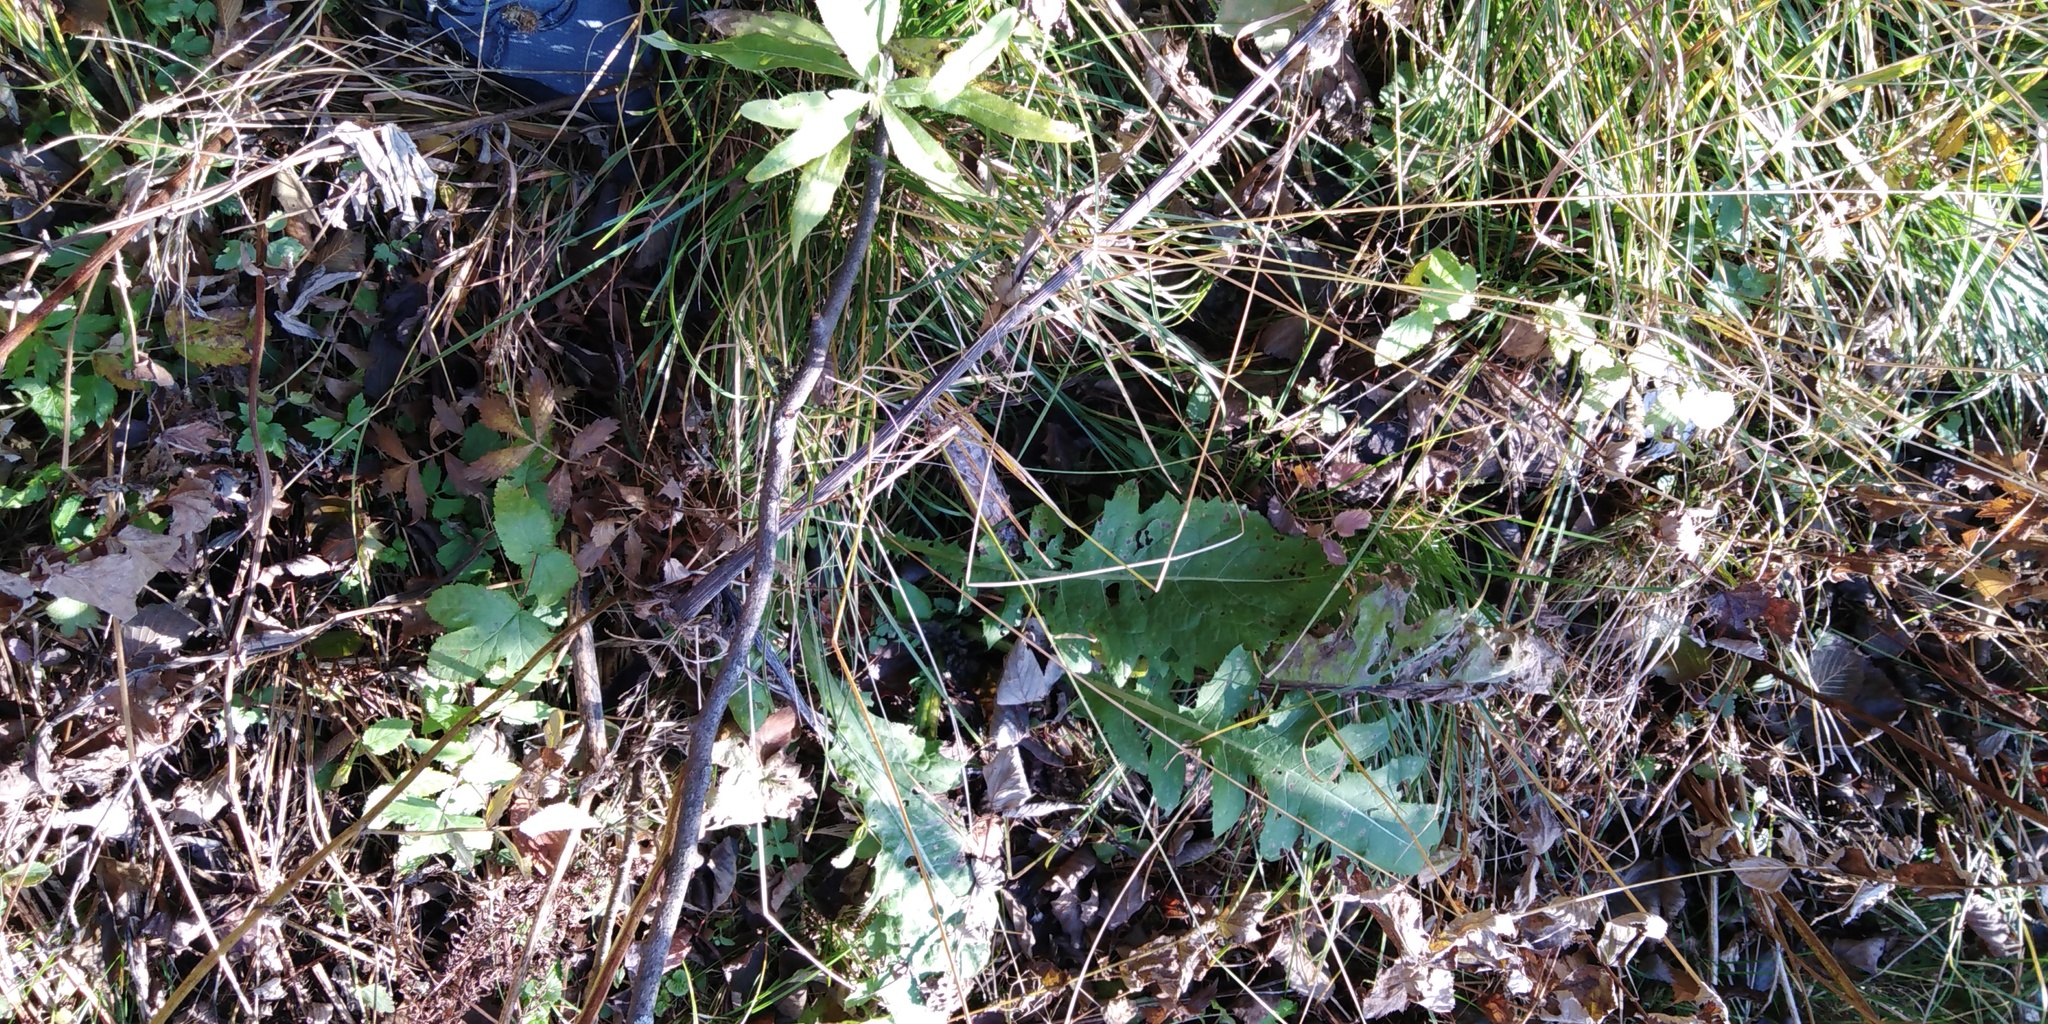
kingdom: Plantae
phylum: Tracheophyta
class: Magnoliopsida
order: Asterales
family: Asteraceae
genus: Cirsium
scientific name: Cirsium oleraceum
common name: Cabbage thistle
